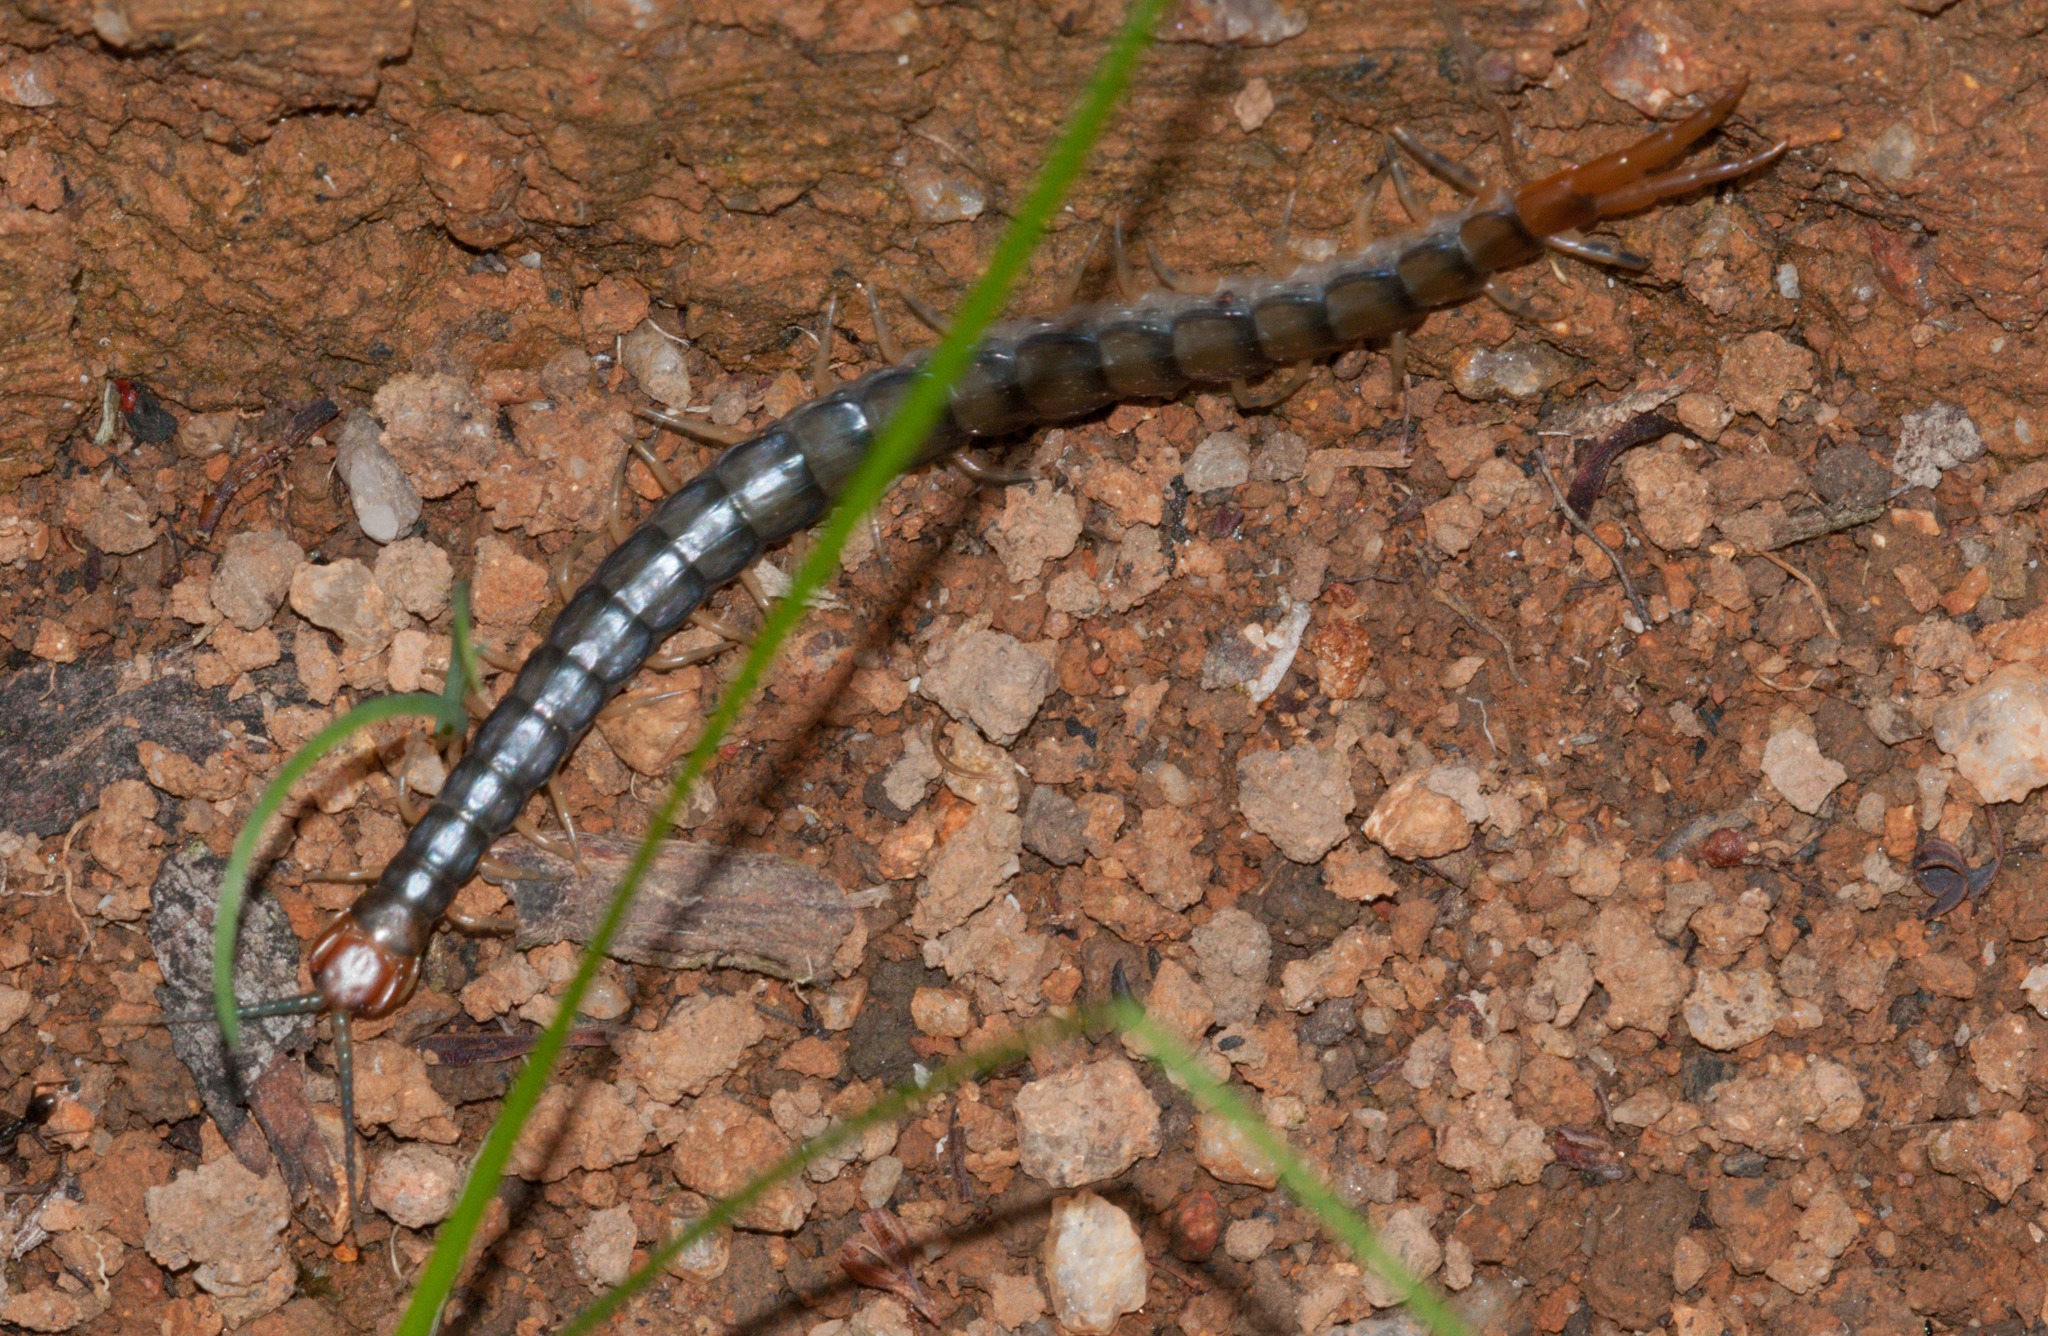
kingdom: Animalia
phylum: Arthropoda
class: Chilopoda
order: Scolopendromorpha
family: Scolopendridae
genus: Cormocephalus
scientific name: Cormocephalus aurantiipes
